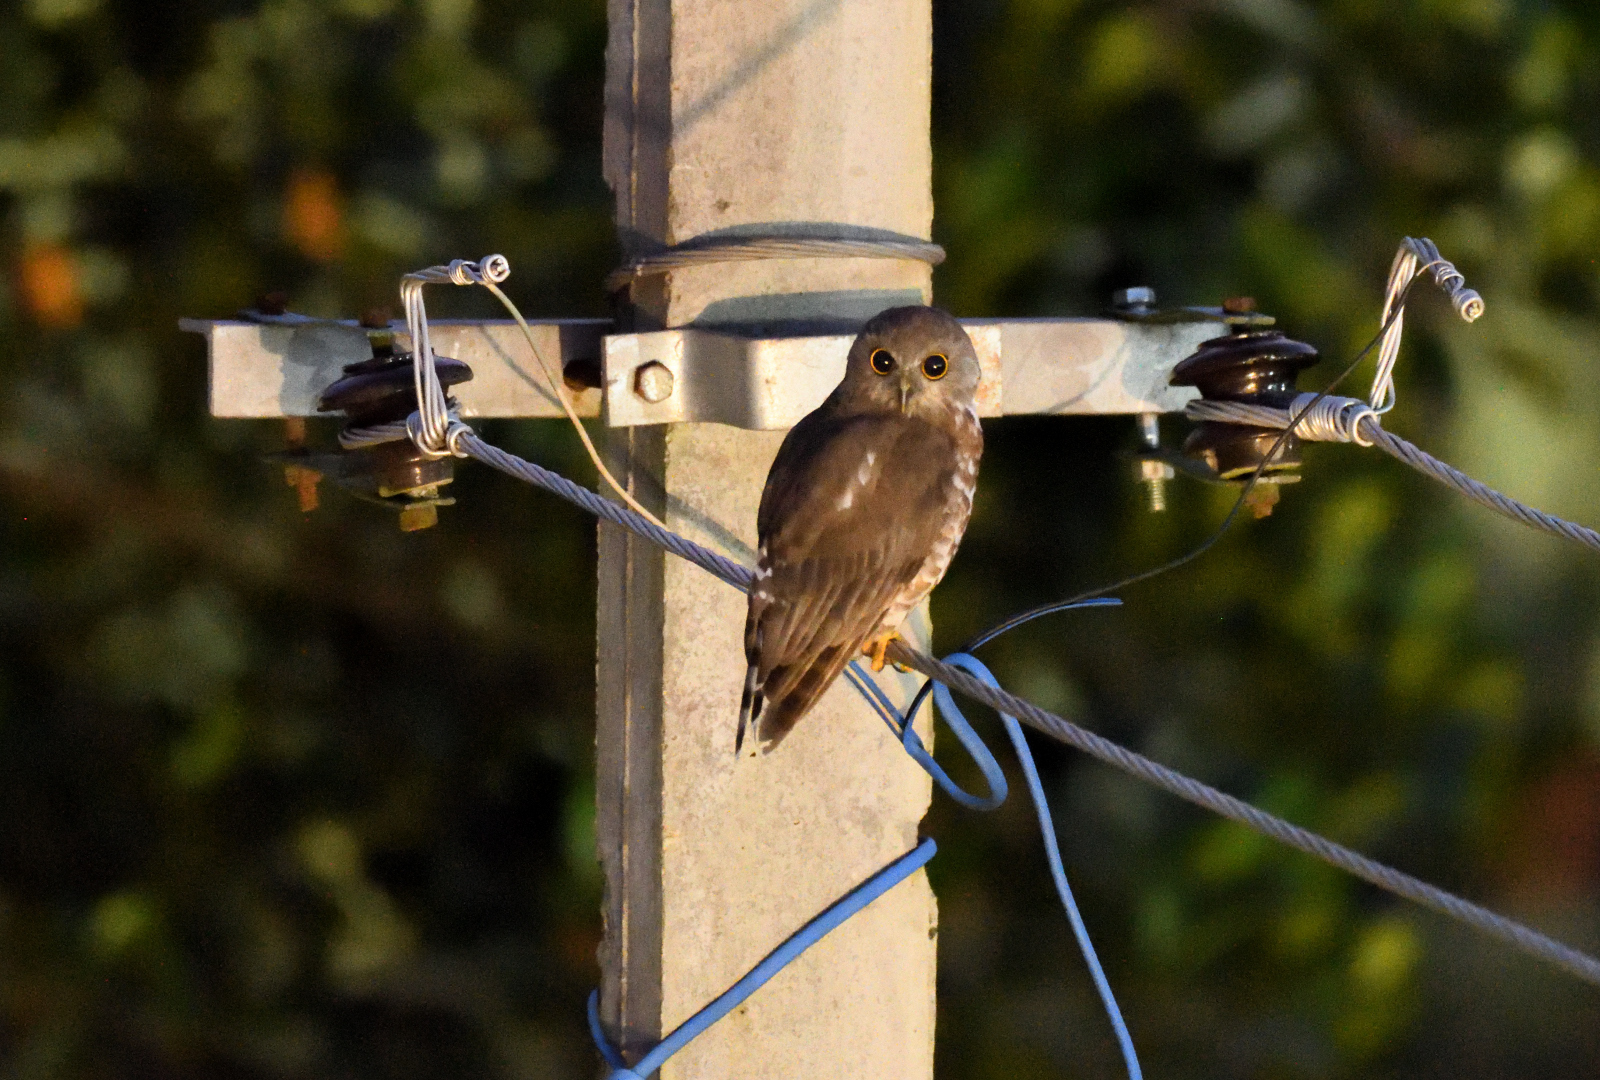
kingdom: Animalia
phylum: Chordata
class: Aves
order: Strigiformes
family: Strigidae
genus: Ninox
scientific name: Ninox scutulata
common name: Brown hawk-owl
